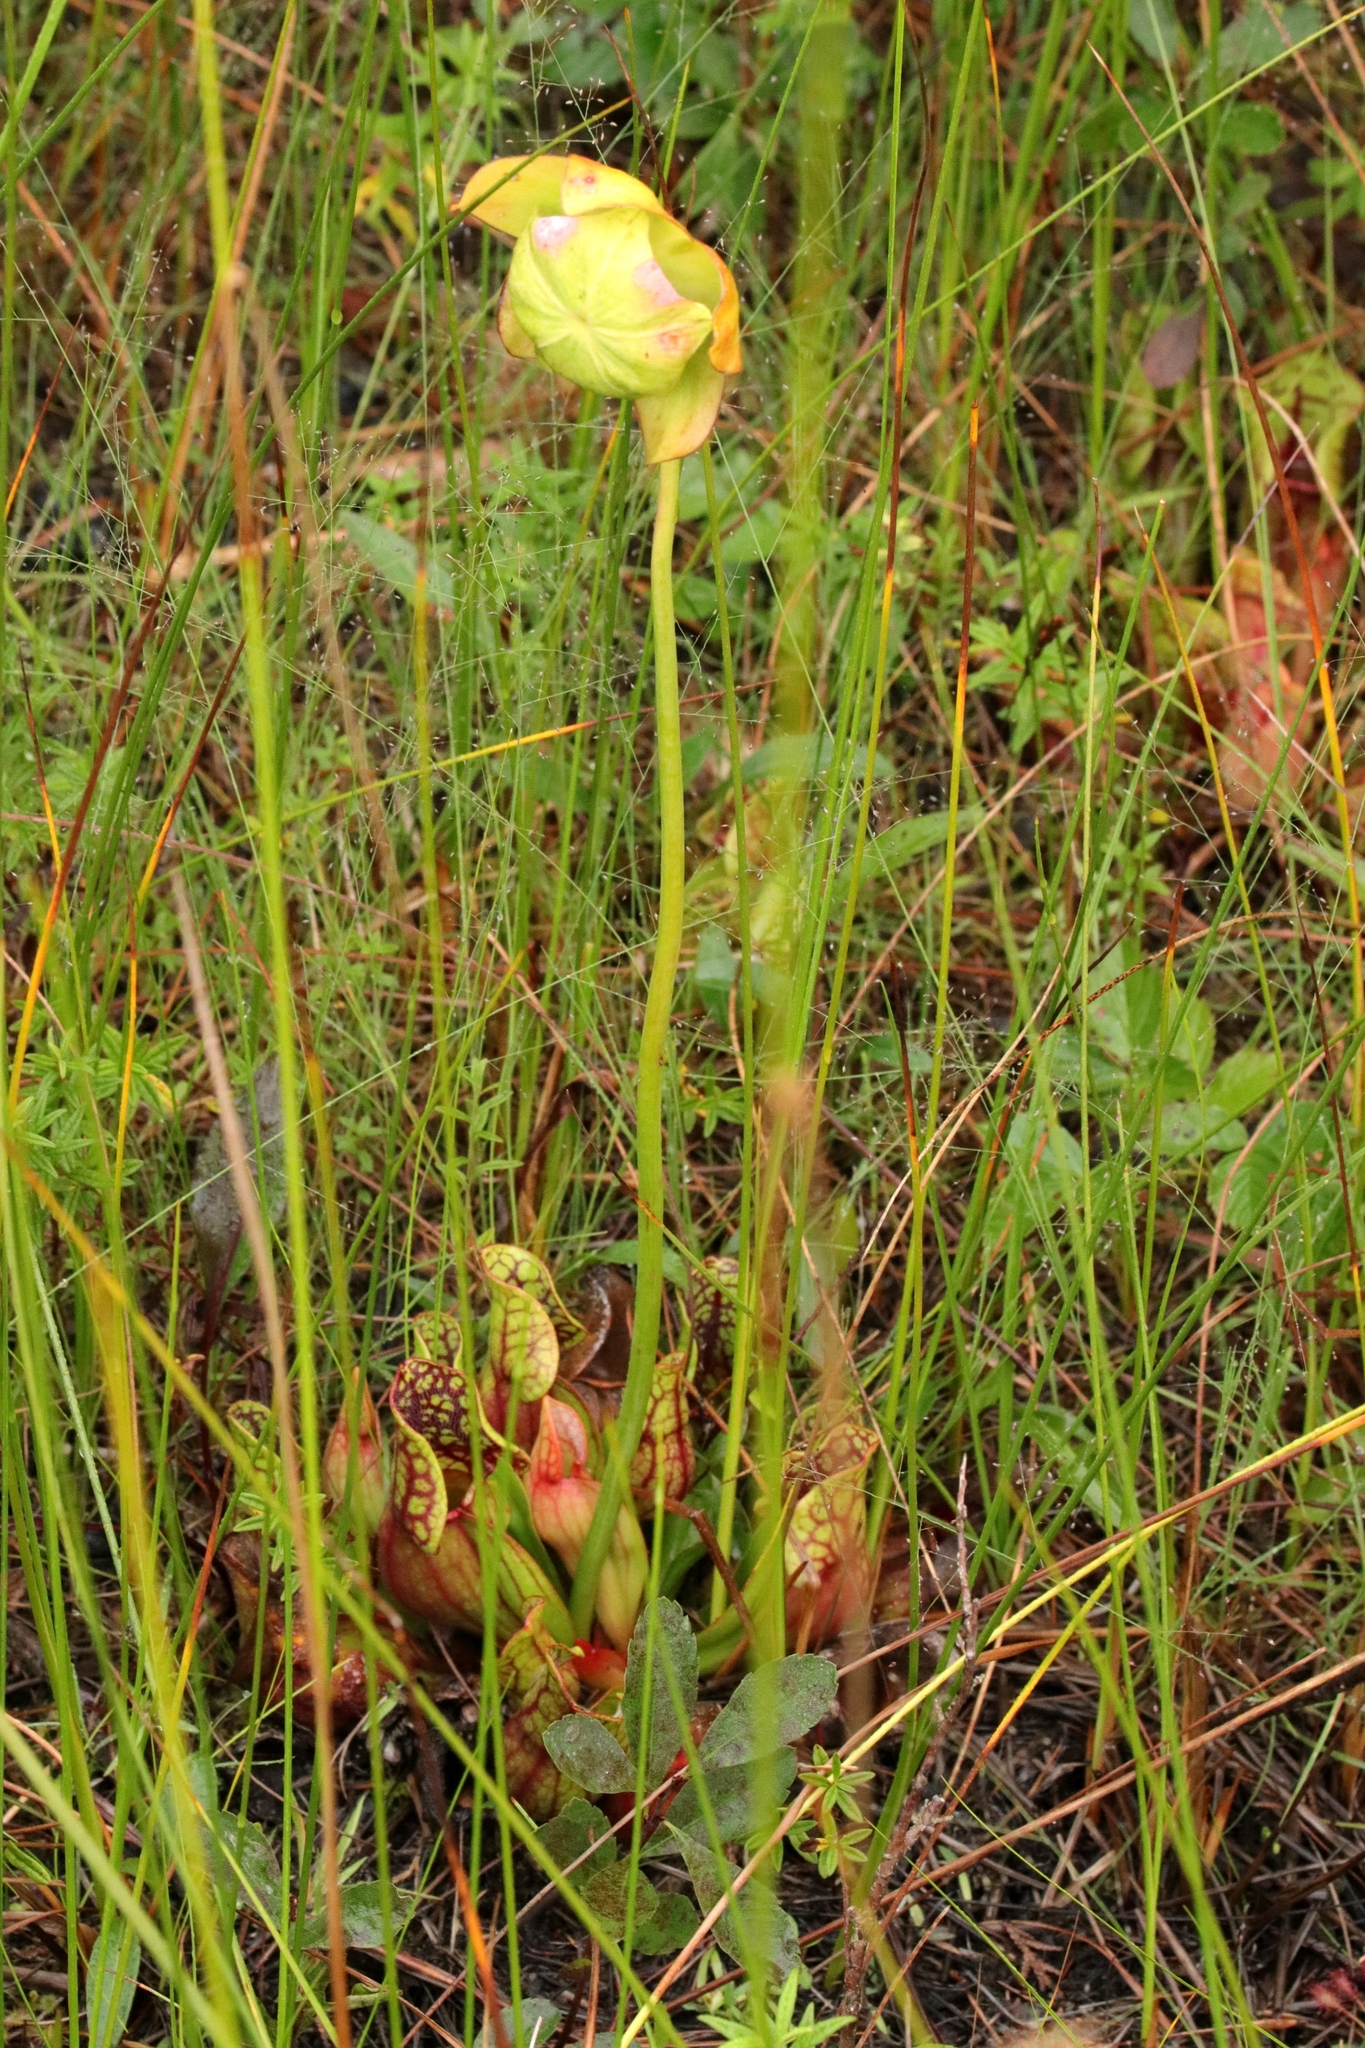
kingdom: Plantae
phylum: Tracheophyta
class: Magnoliopsida
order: Ericales
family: Sarraceniaceae
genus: Sarracenia
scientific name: Sarracenia purpurea
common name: Pitcherplant
